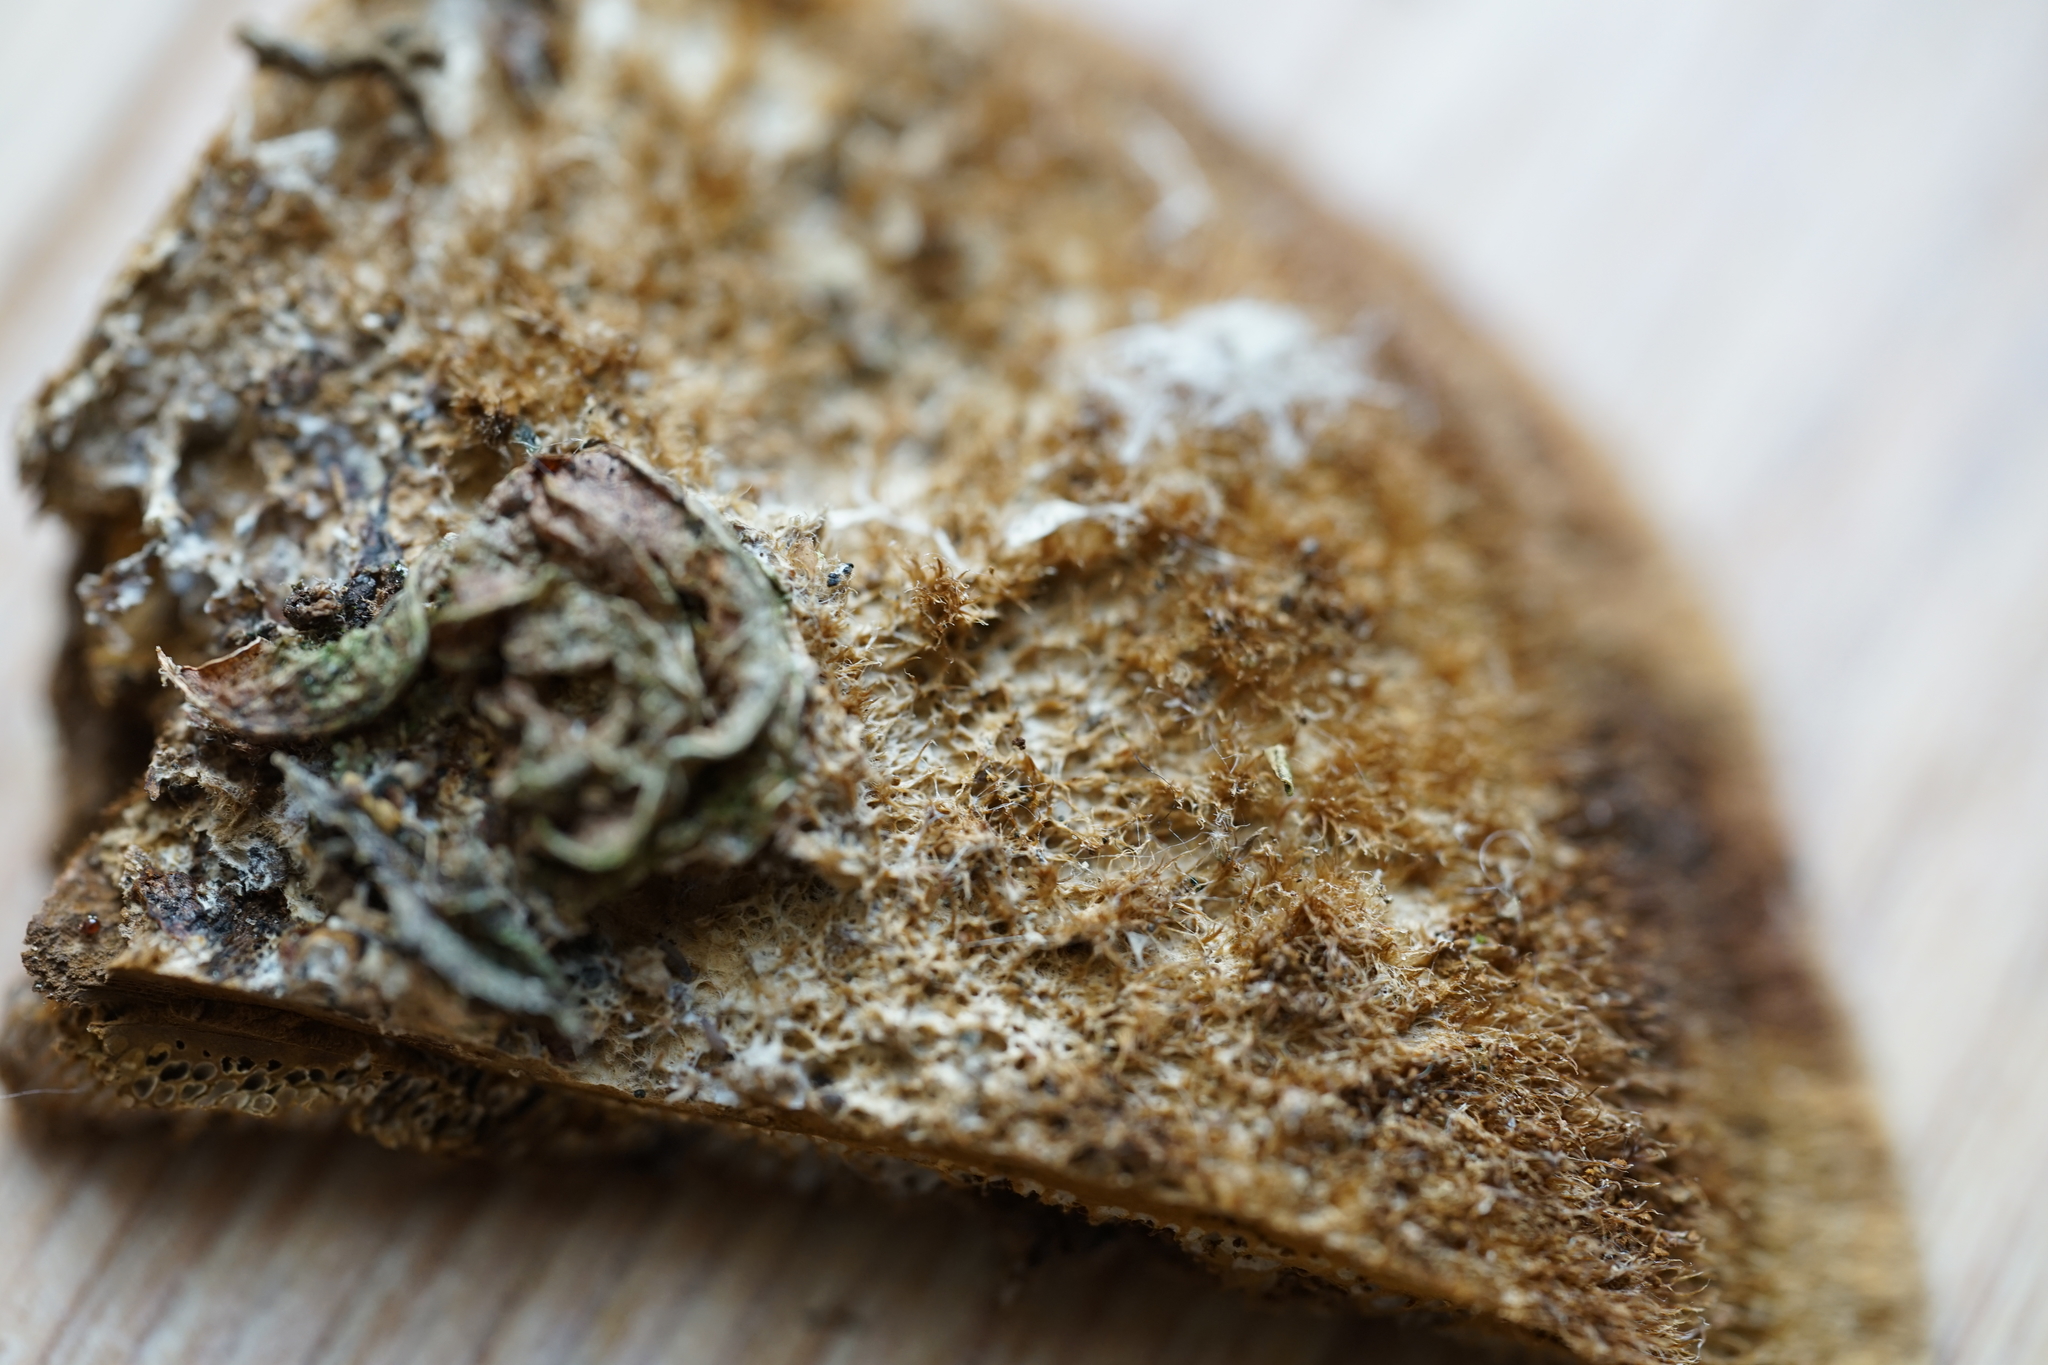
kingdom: Fungi
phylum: Basidiomycota
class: Agaricomycetes
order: Polyporales
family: Polyporaceae
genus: Coriolopsis
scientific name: Coriolopsis gallica
